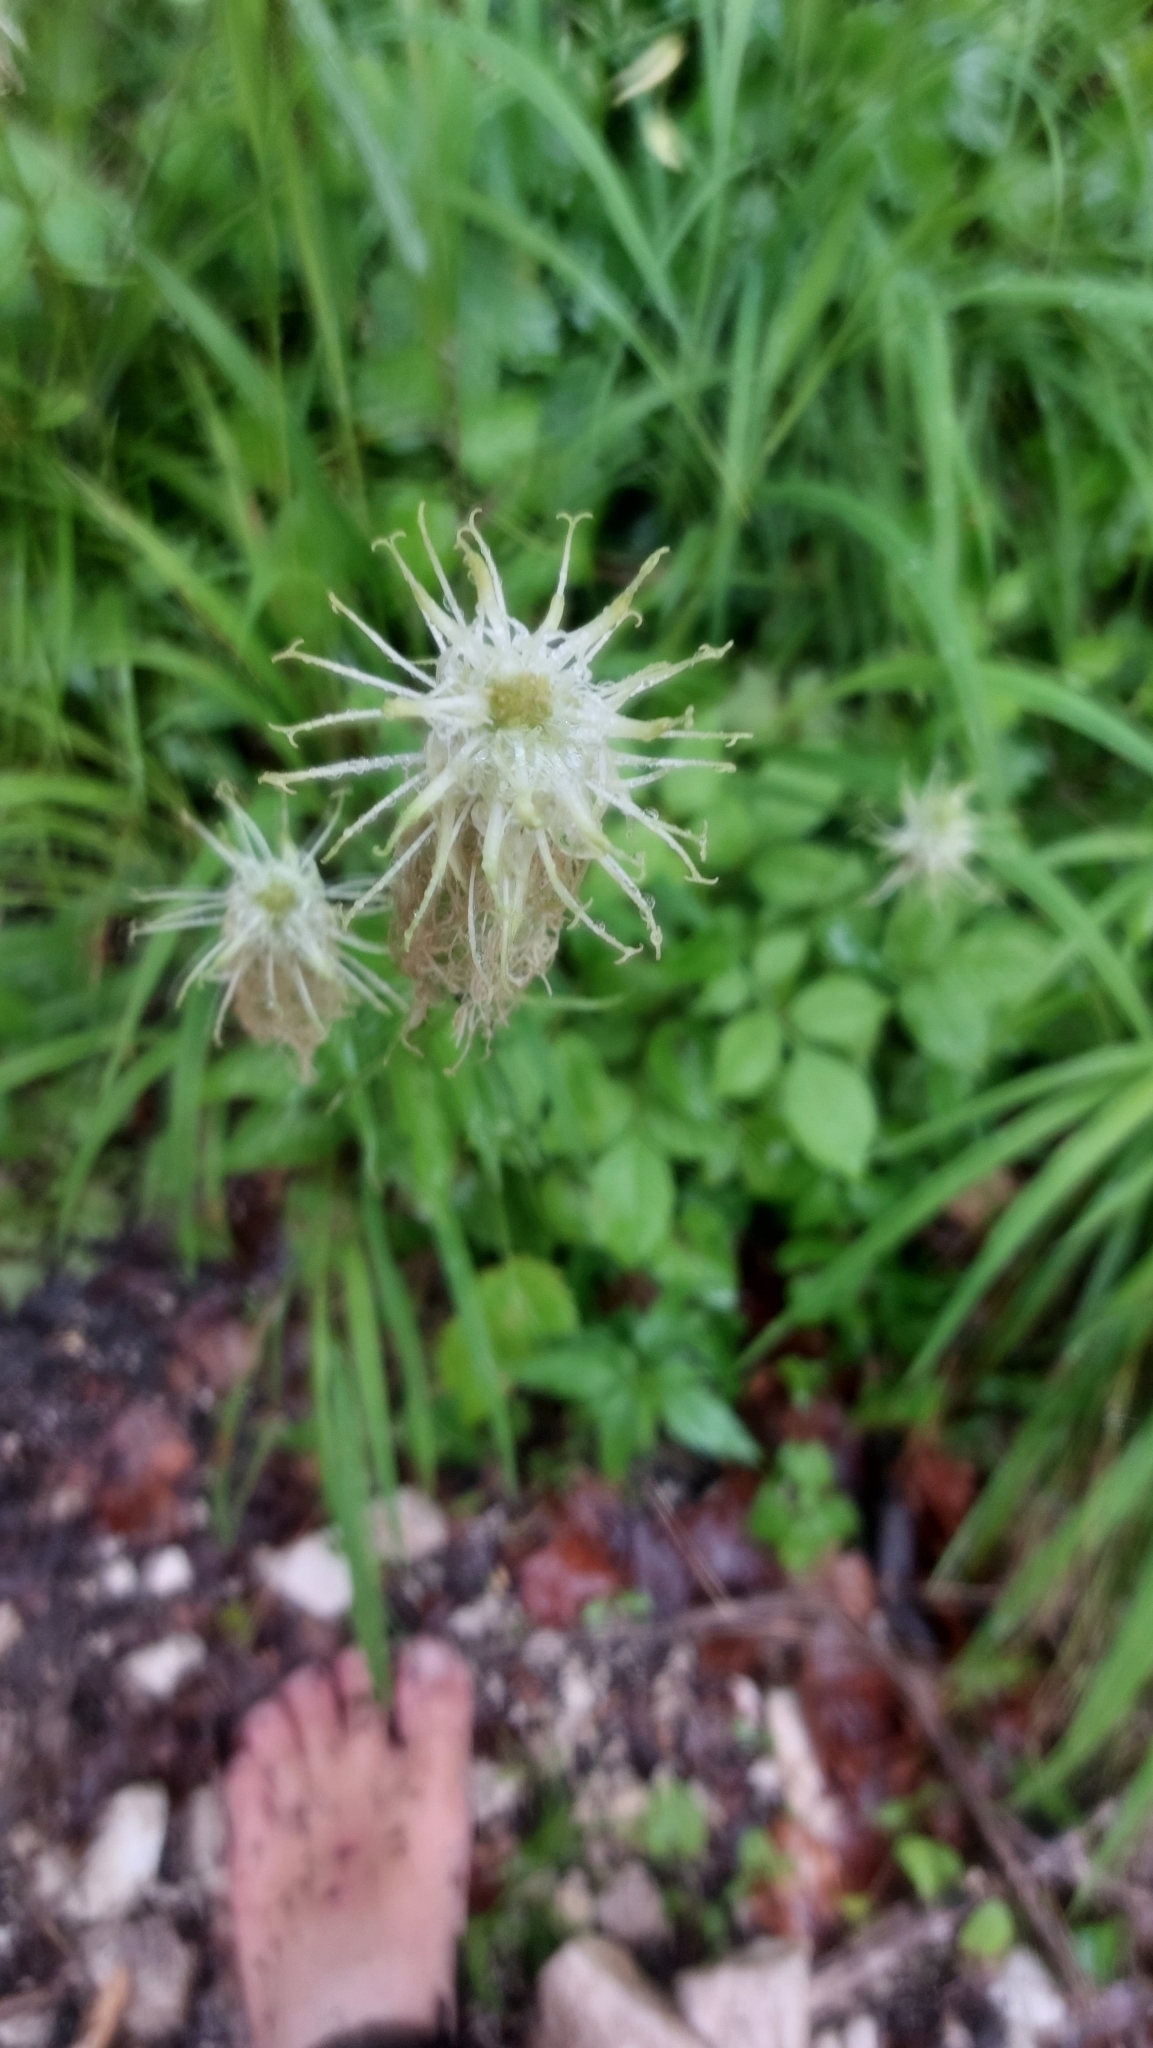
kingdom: Plantae
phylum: Tracheophyta
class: Magnoliopsida
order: Asterales
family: Campanulaceae
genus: Phyteuma
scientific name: Phyteuma spicatum
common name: Spiked rampion
